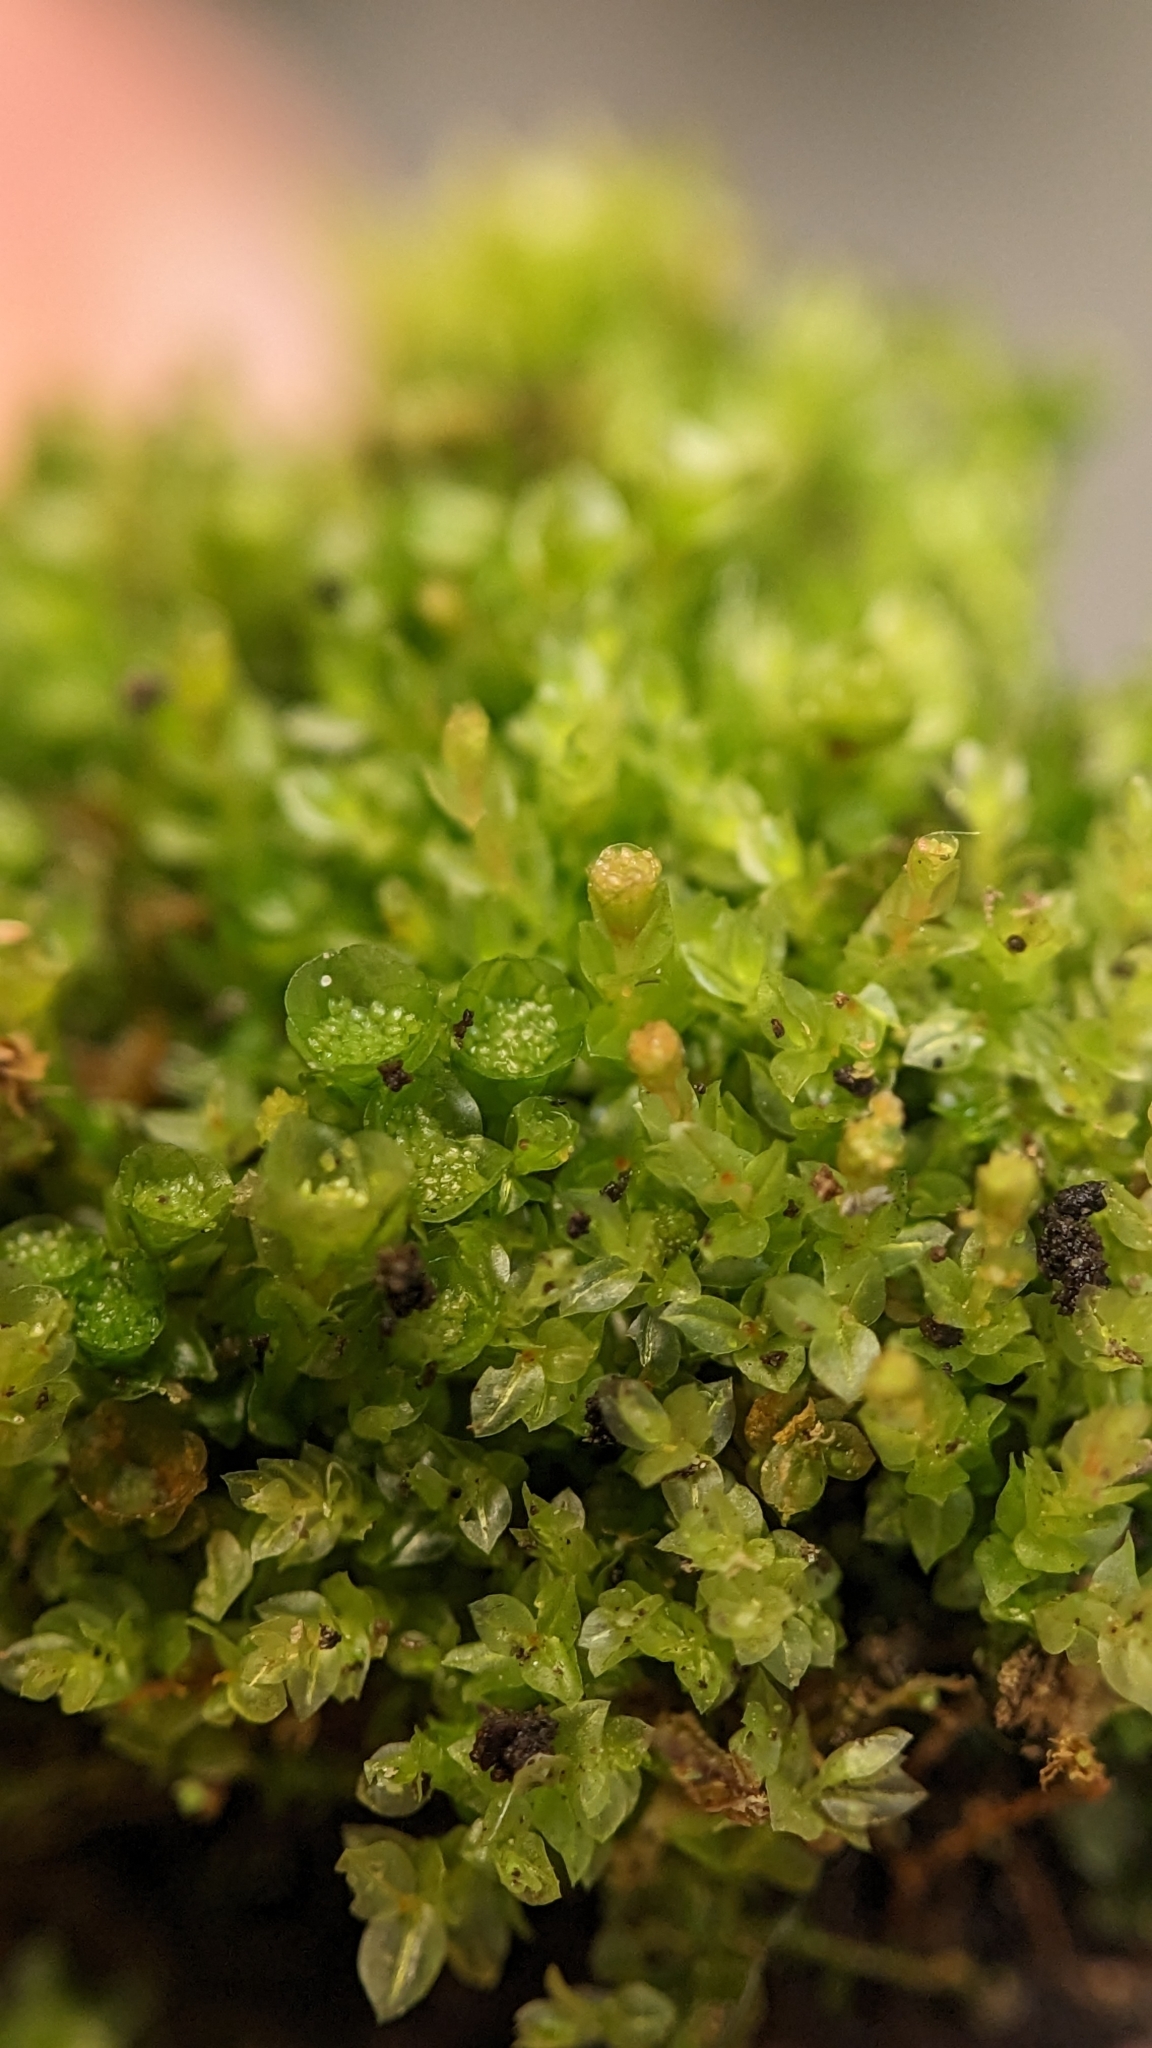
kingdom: Plantae
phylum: Bryophyta
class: Polytrichopsida
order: Tetraphidales
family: Tetraphidaceae
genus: Tetraphis
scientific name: Tetraphis pellucida
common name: Common four-toothed moss
